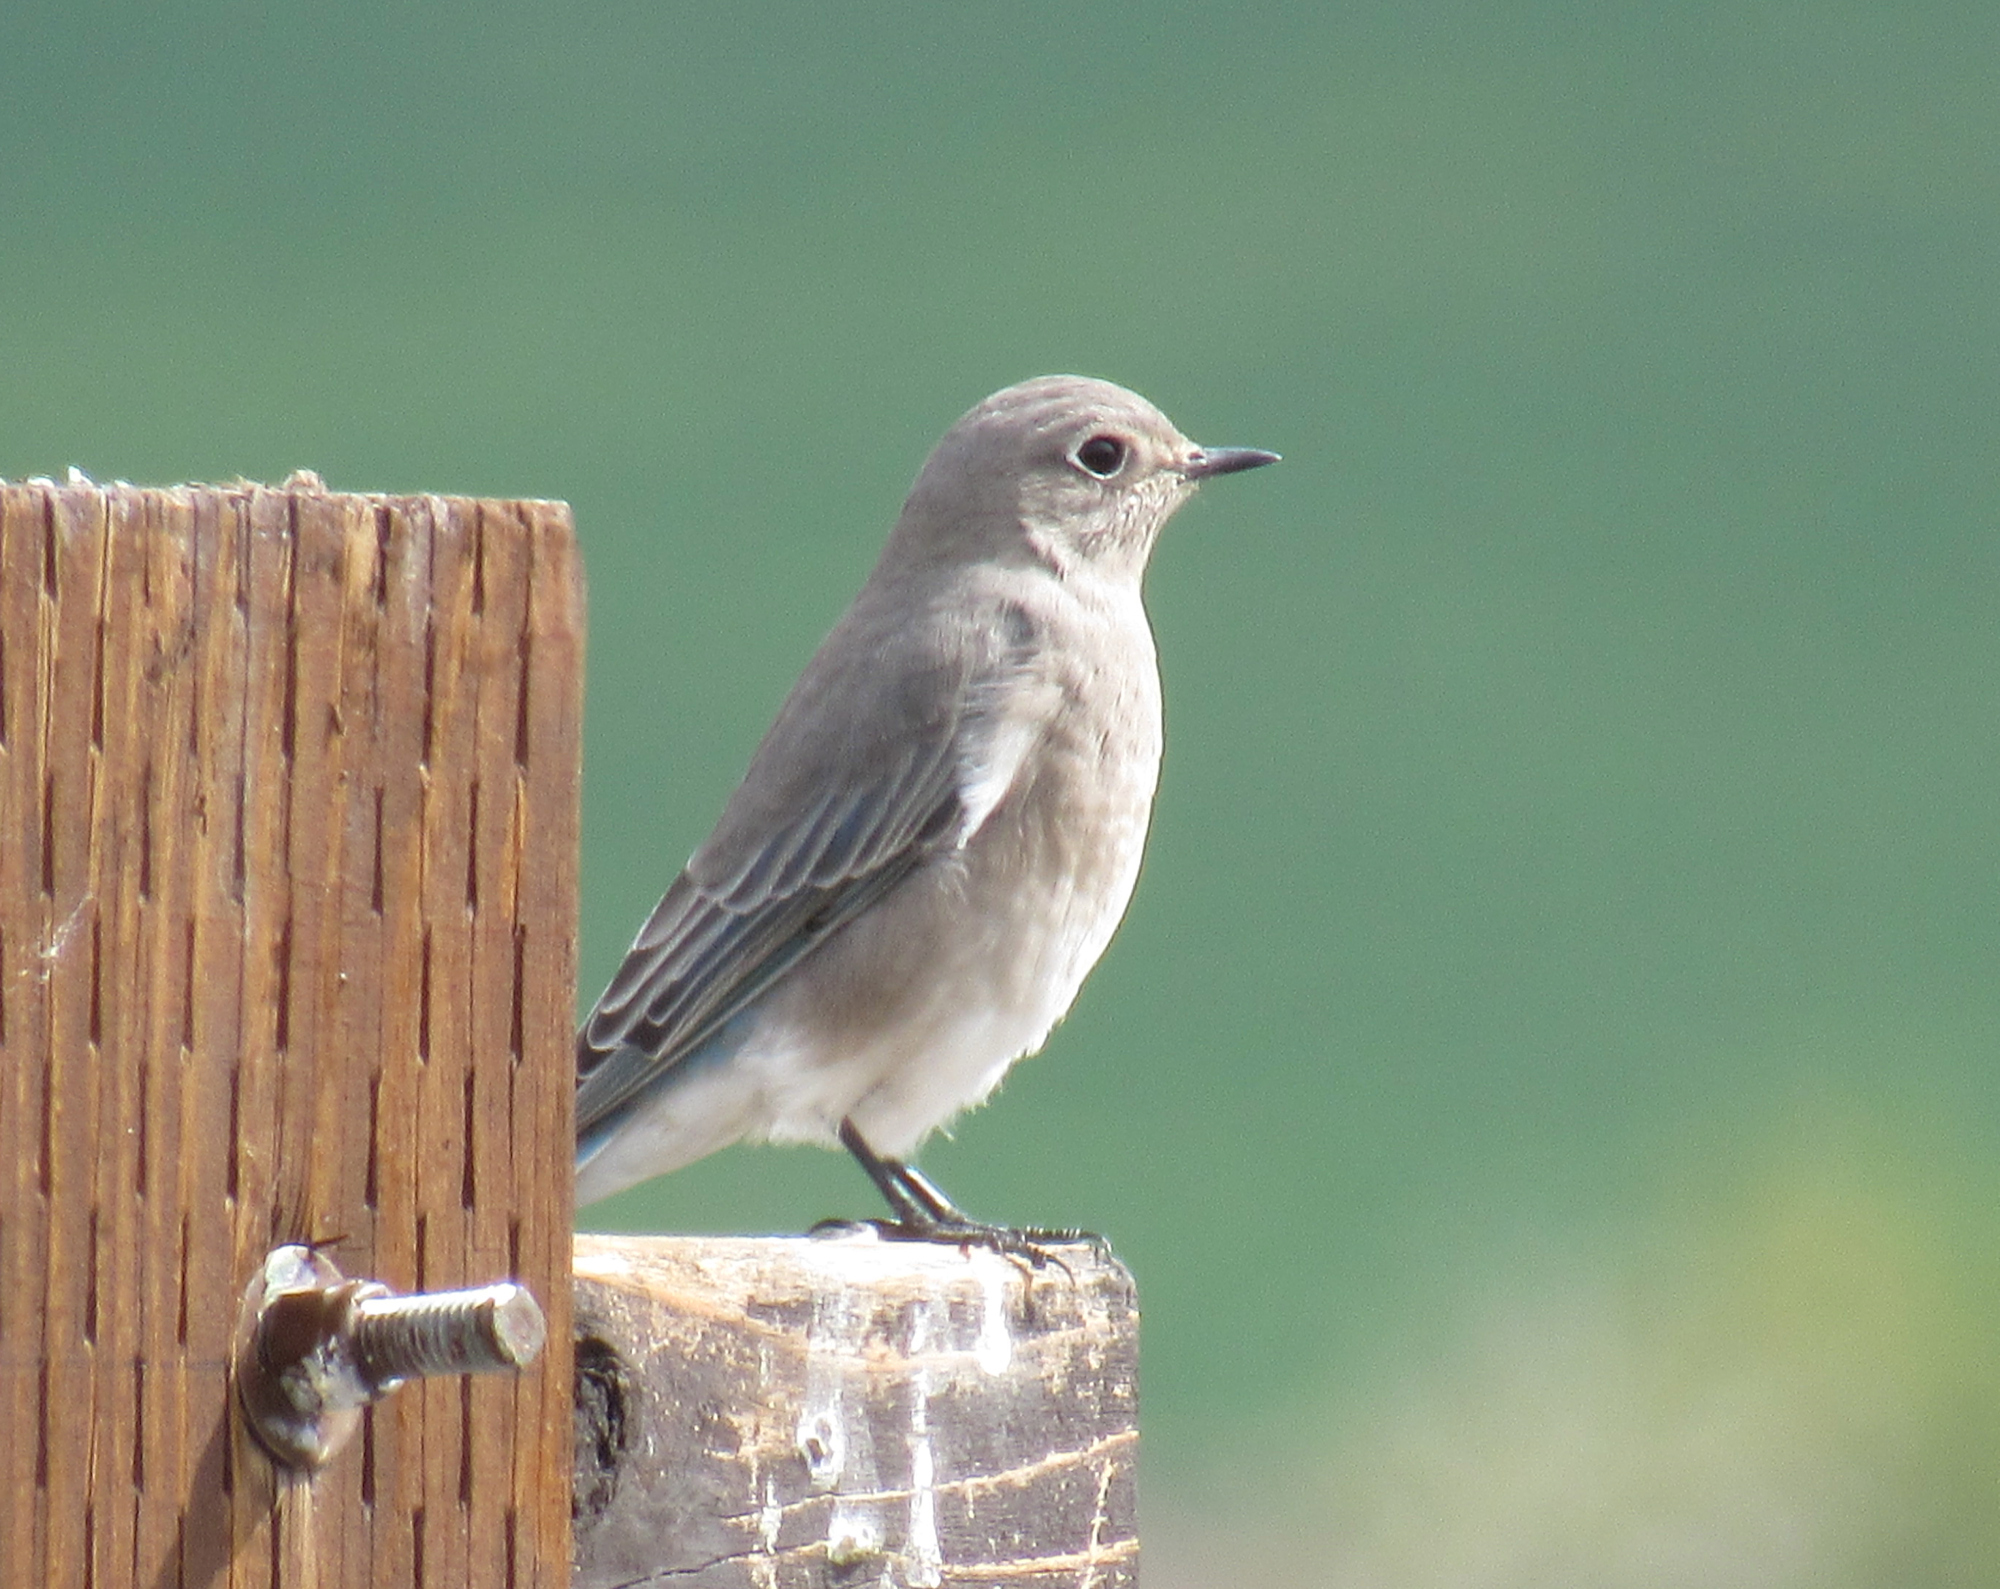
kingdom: Animalia
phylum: Chordata
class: Aves
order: Passeriformes
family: Turdidae
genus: Sialia
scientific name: Sialia currucoides
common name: Mountain bluebird
